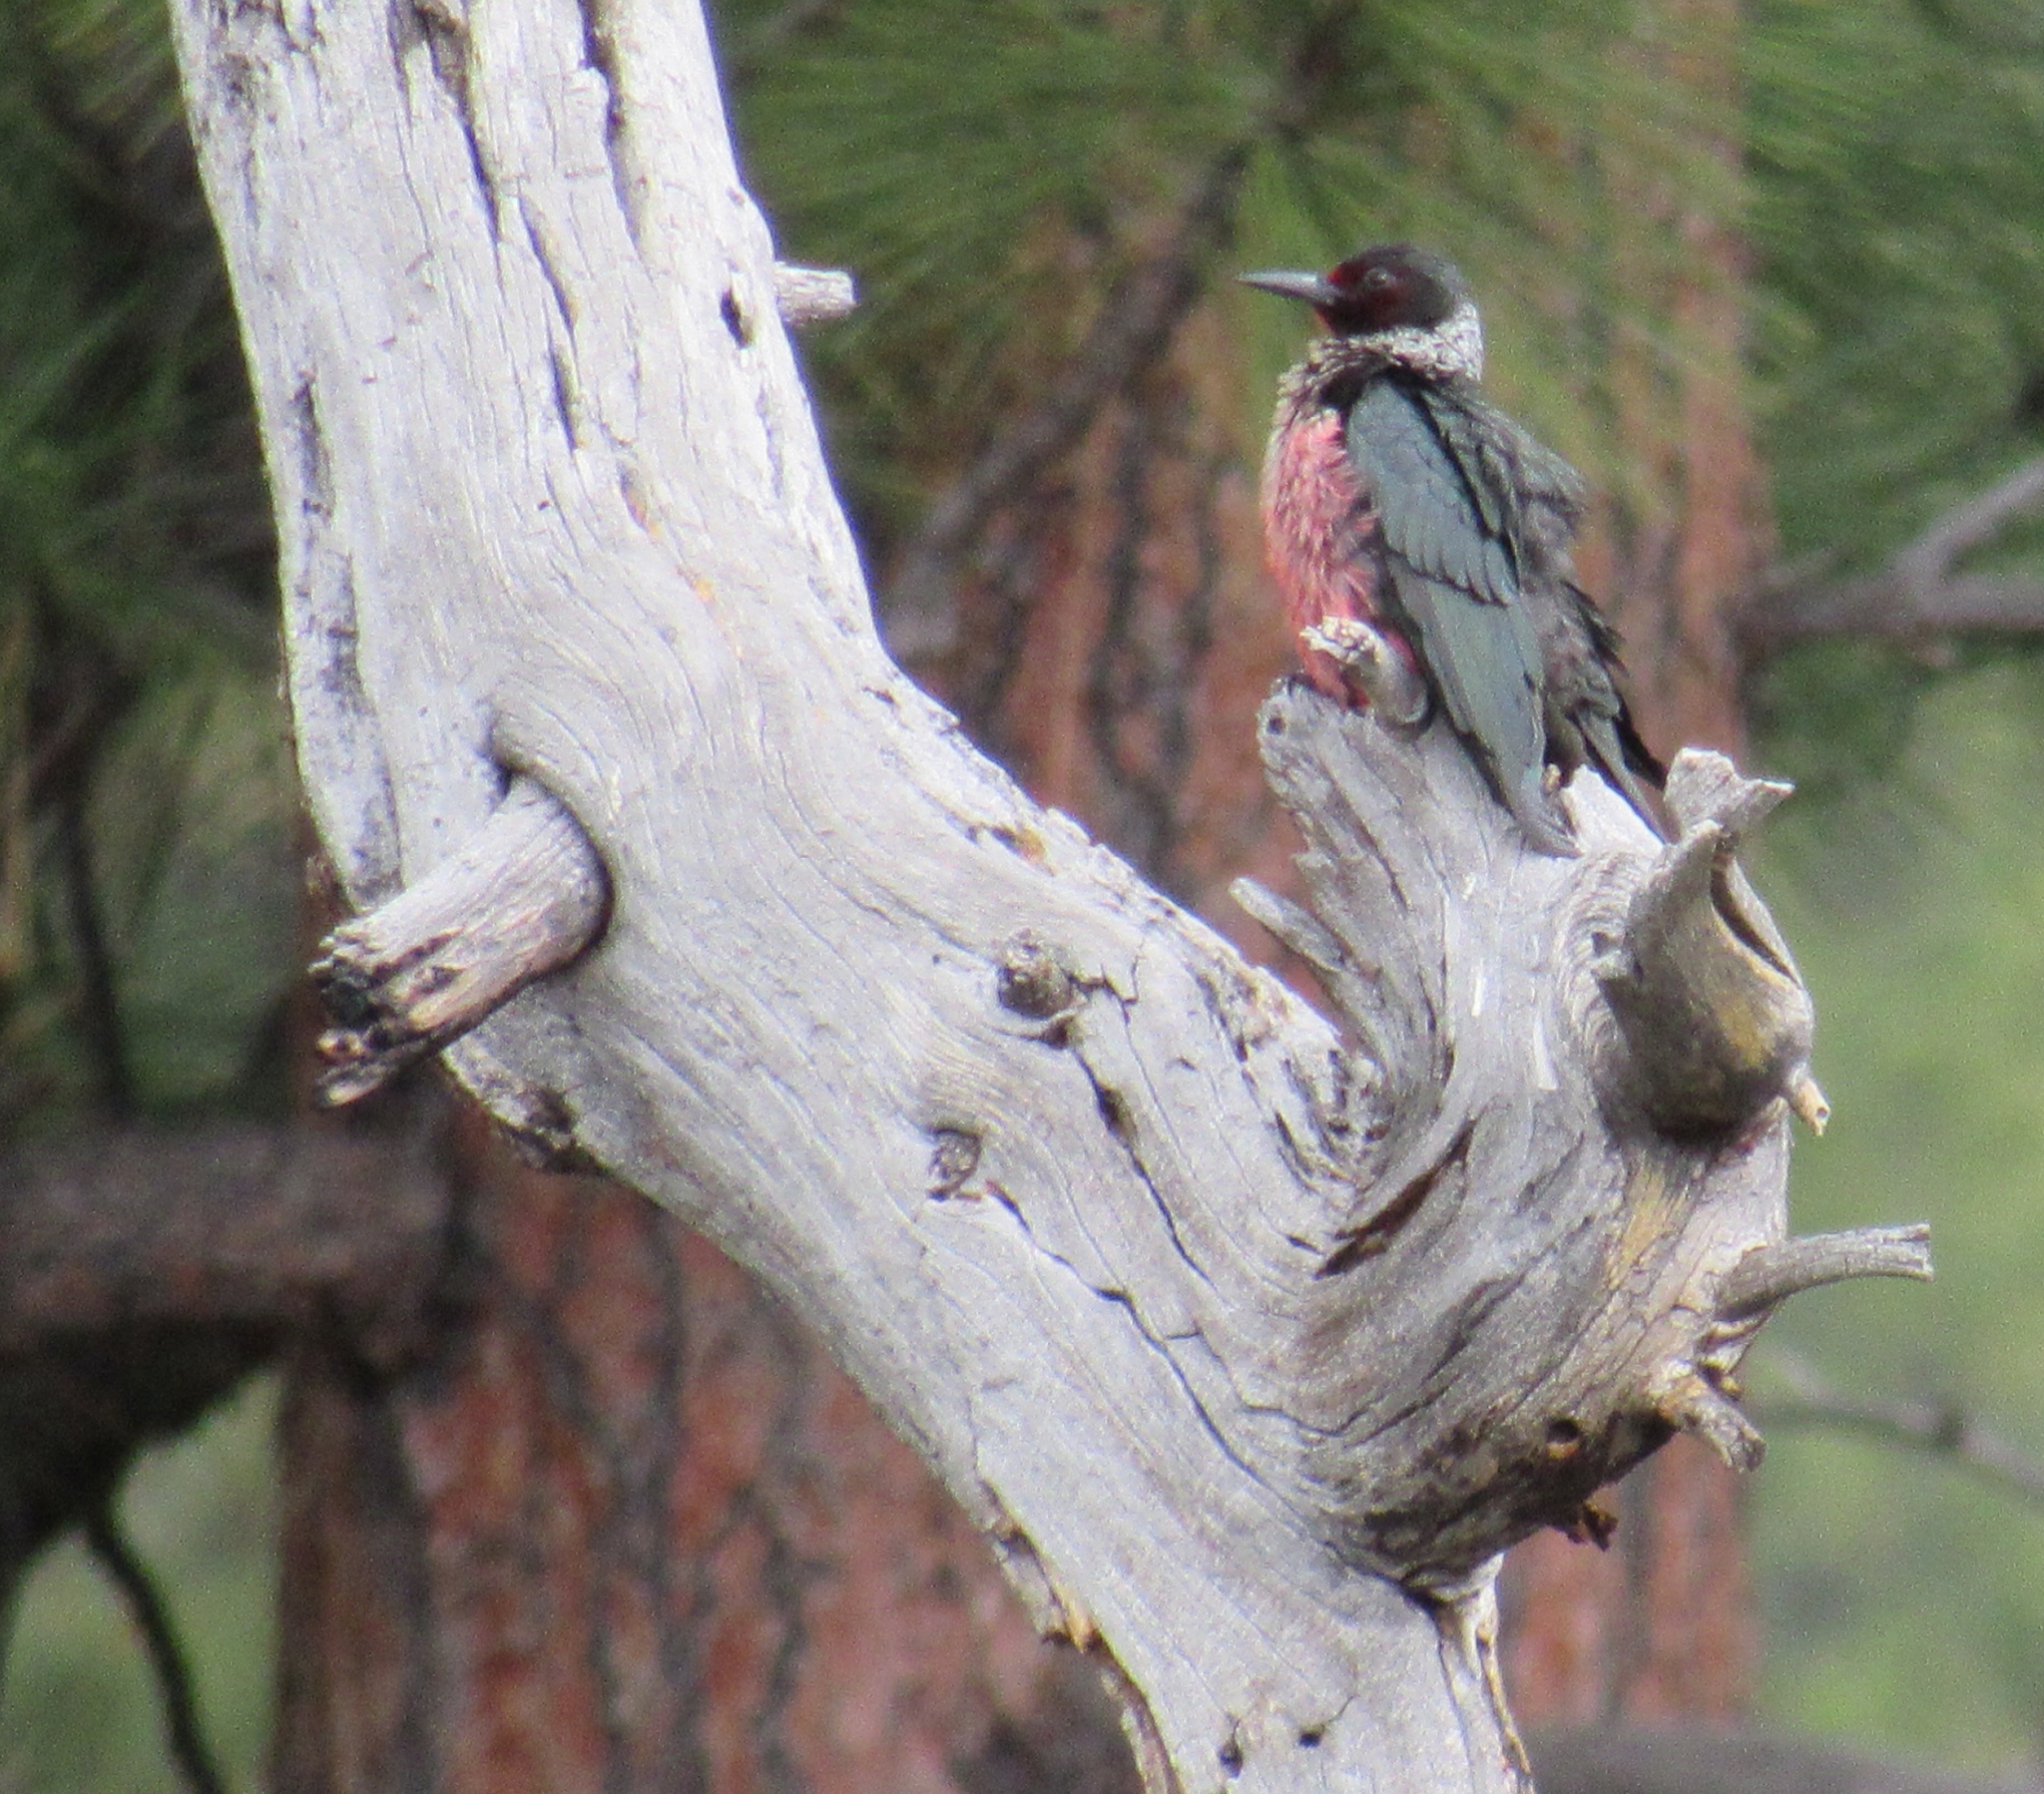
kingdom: Animalia
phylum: Chordata
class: Aves
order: Piciformes
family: Picidae
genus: Melanerpes
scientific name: Melanerpes lewis
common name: Lewis's woodpecker
